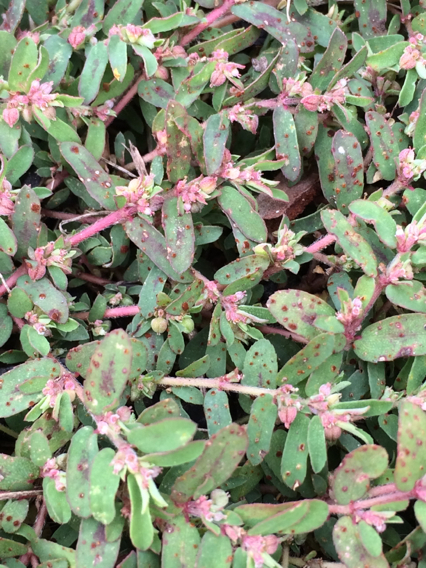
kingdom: Plantae
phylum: Tracheophyta
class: Magnoliopsida
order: Malpighiales
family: Euphorbiaceae
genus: Euphorbia
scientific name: Euphorbia maculata
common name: Spotted spurge
